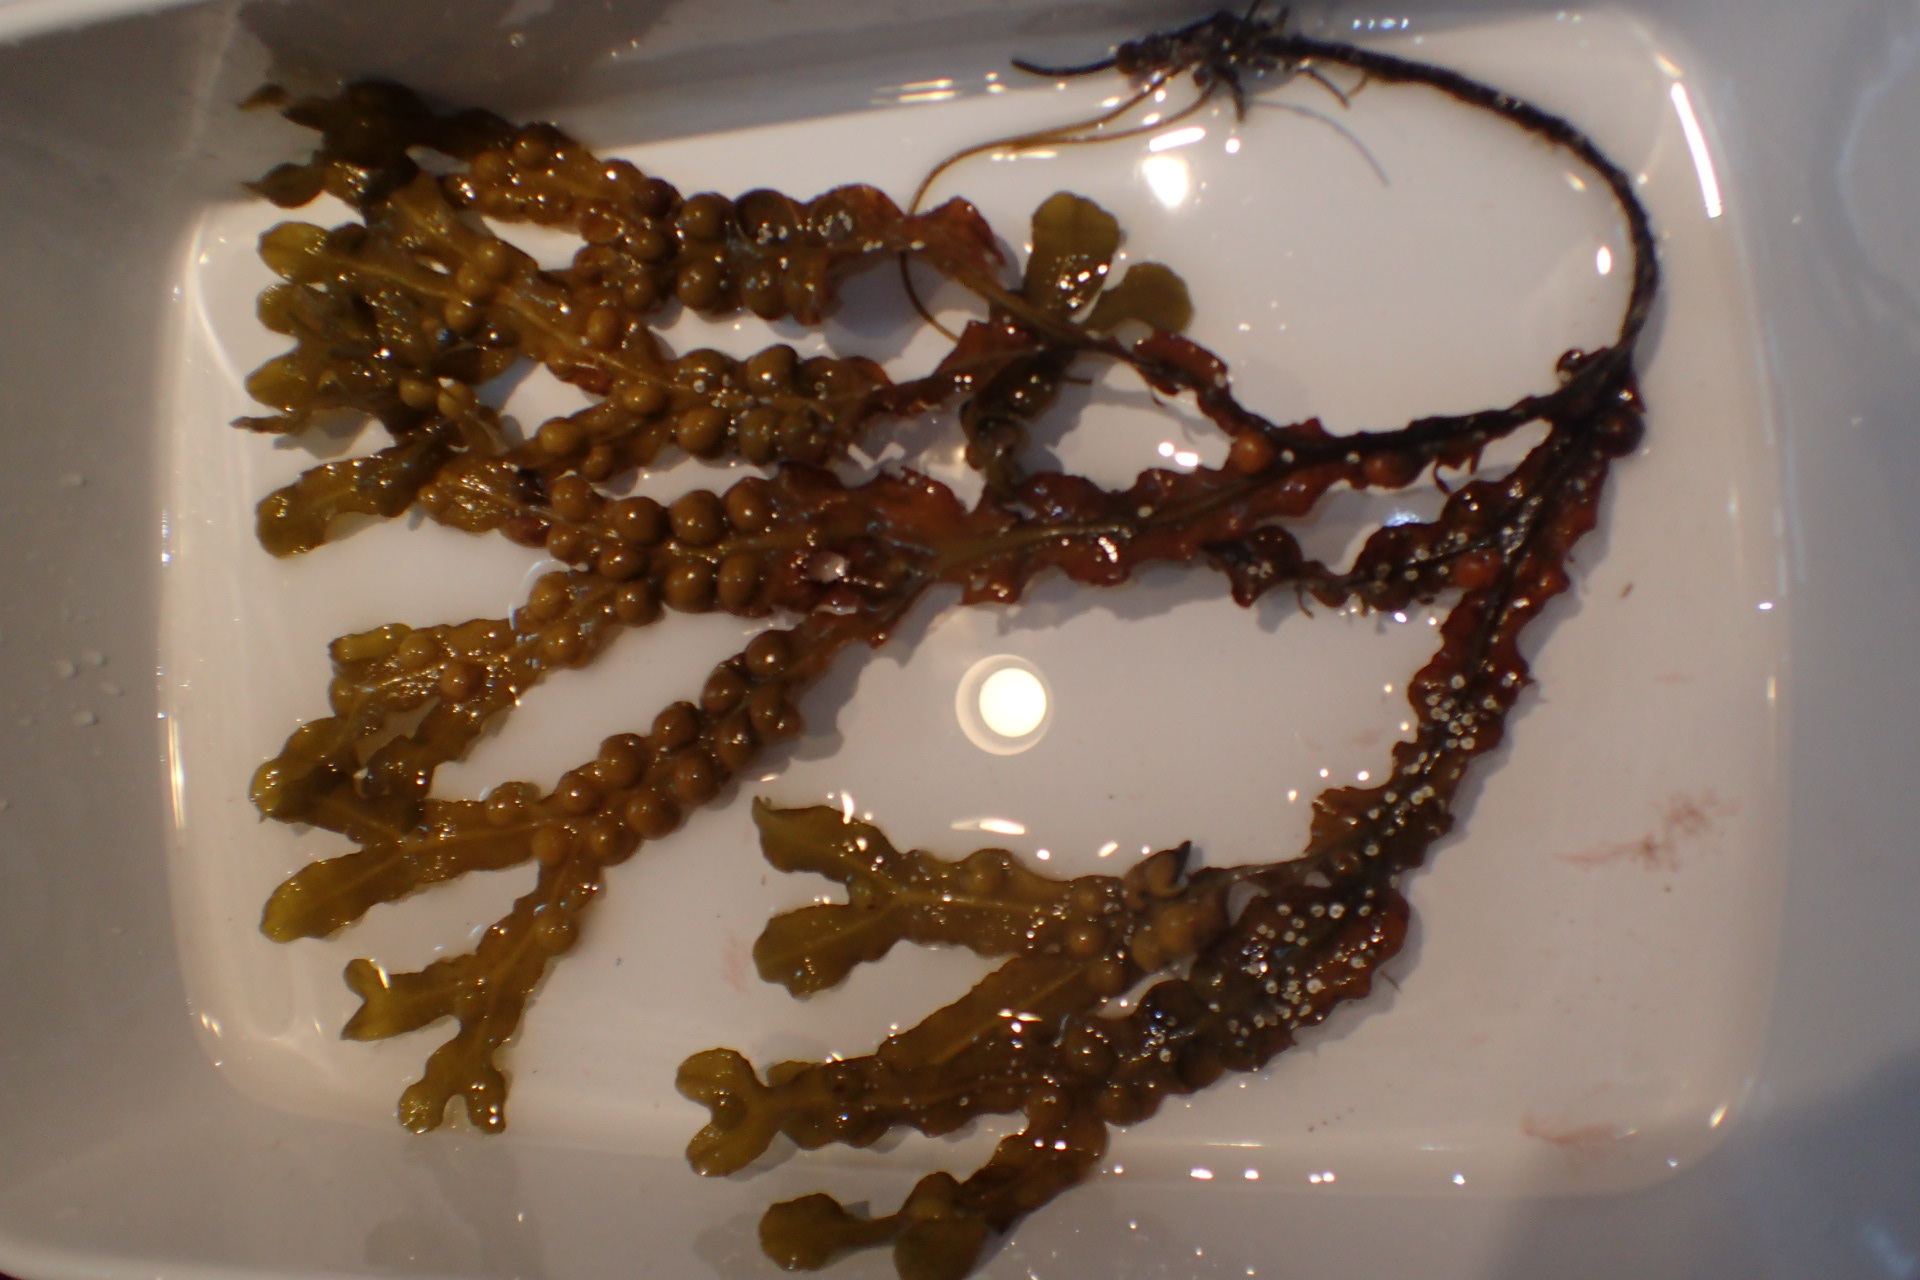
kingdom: Chromista
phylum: Ochrophyta
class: Phaeophyceae
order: Fucales
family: Fucaceae
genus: Fucus
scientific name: Fucus vesiculosus
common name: Bladder wrack
